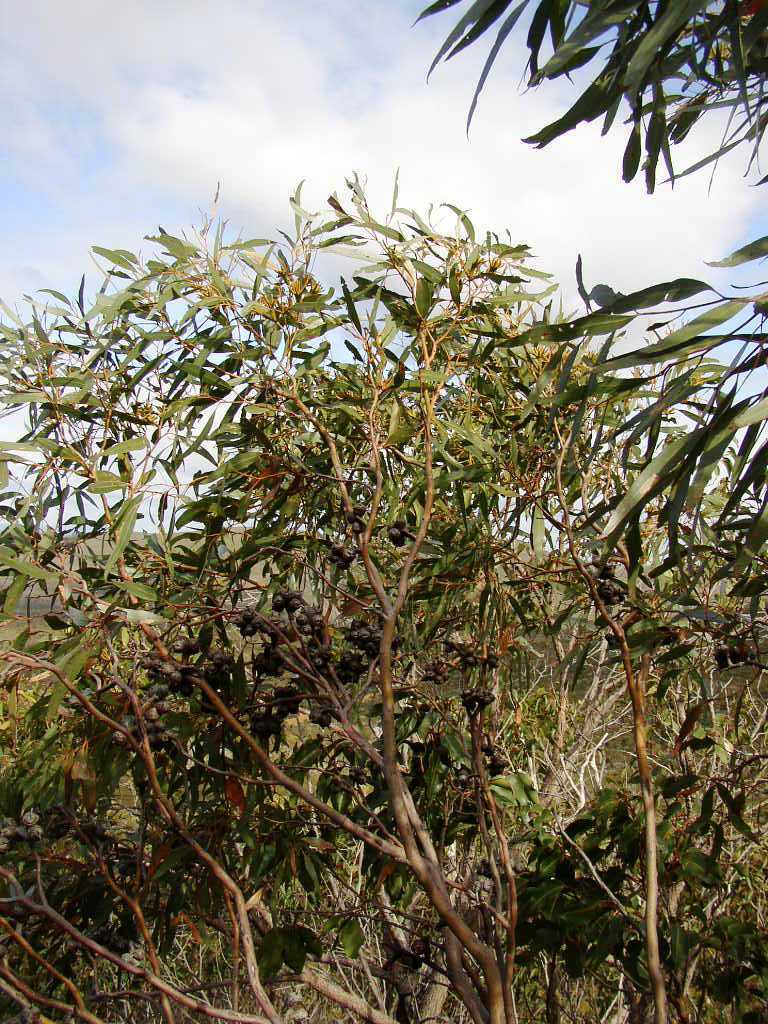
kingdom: Plantae
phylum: Tracheophyta
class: Magnoliopsida
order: Myrtales
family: Myrtaceae
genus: Eucalyptus
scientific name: Eucalyptus talyuberlup
